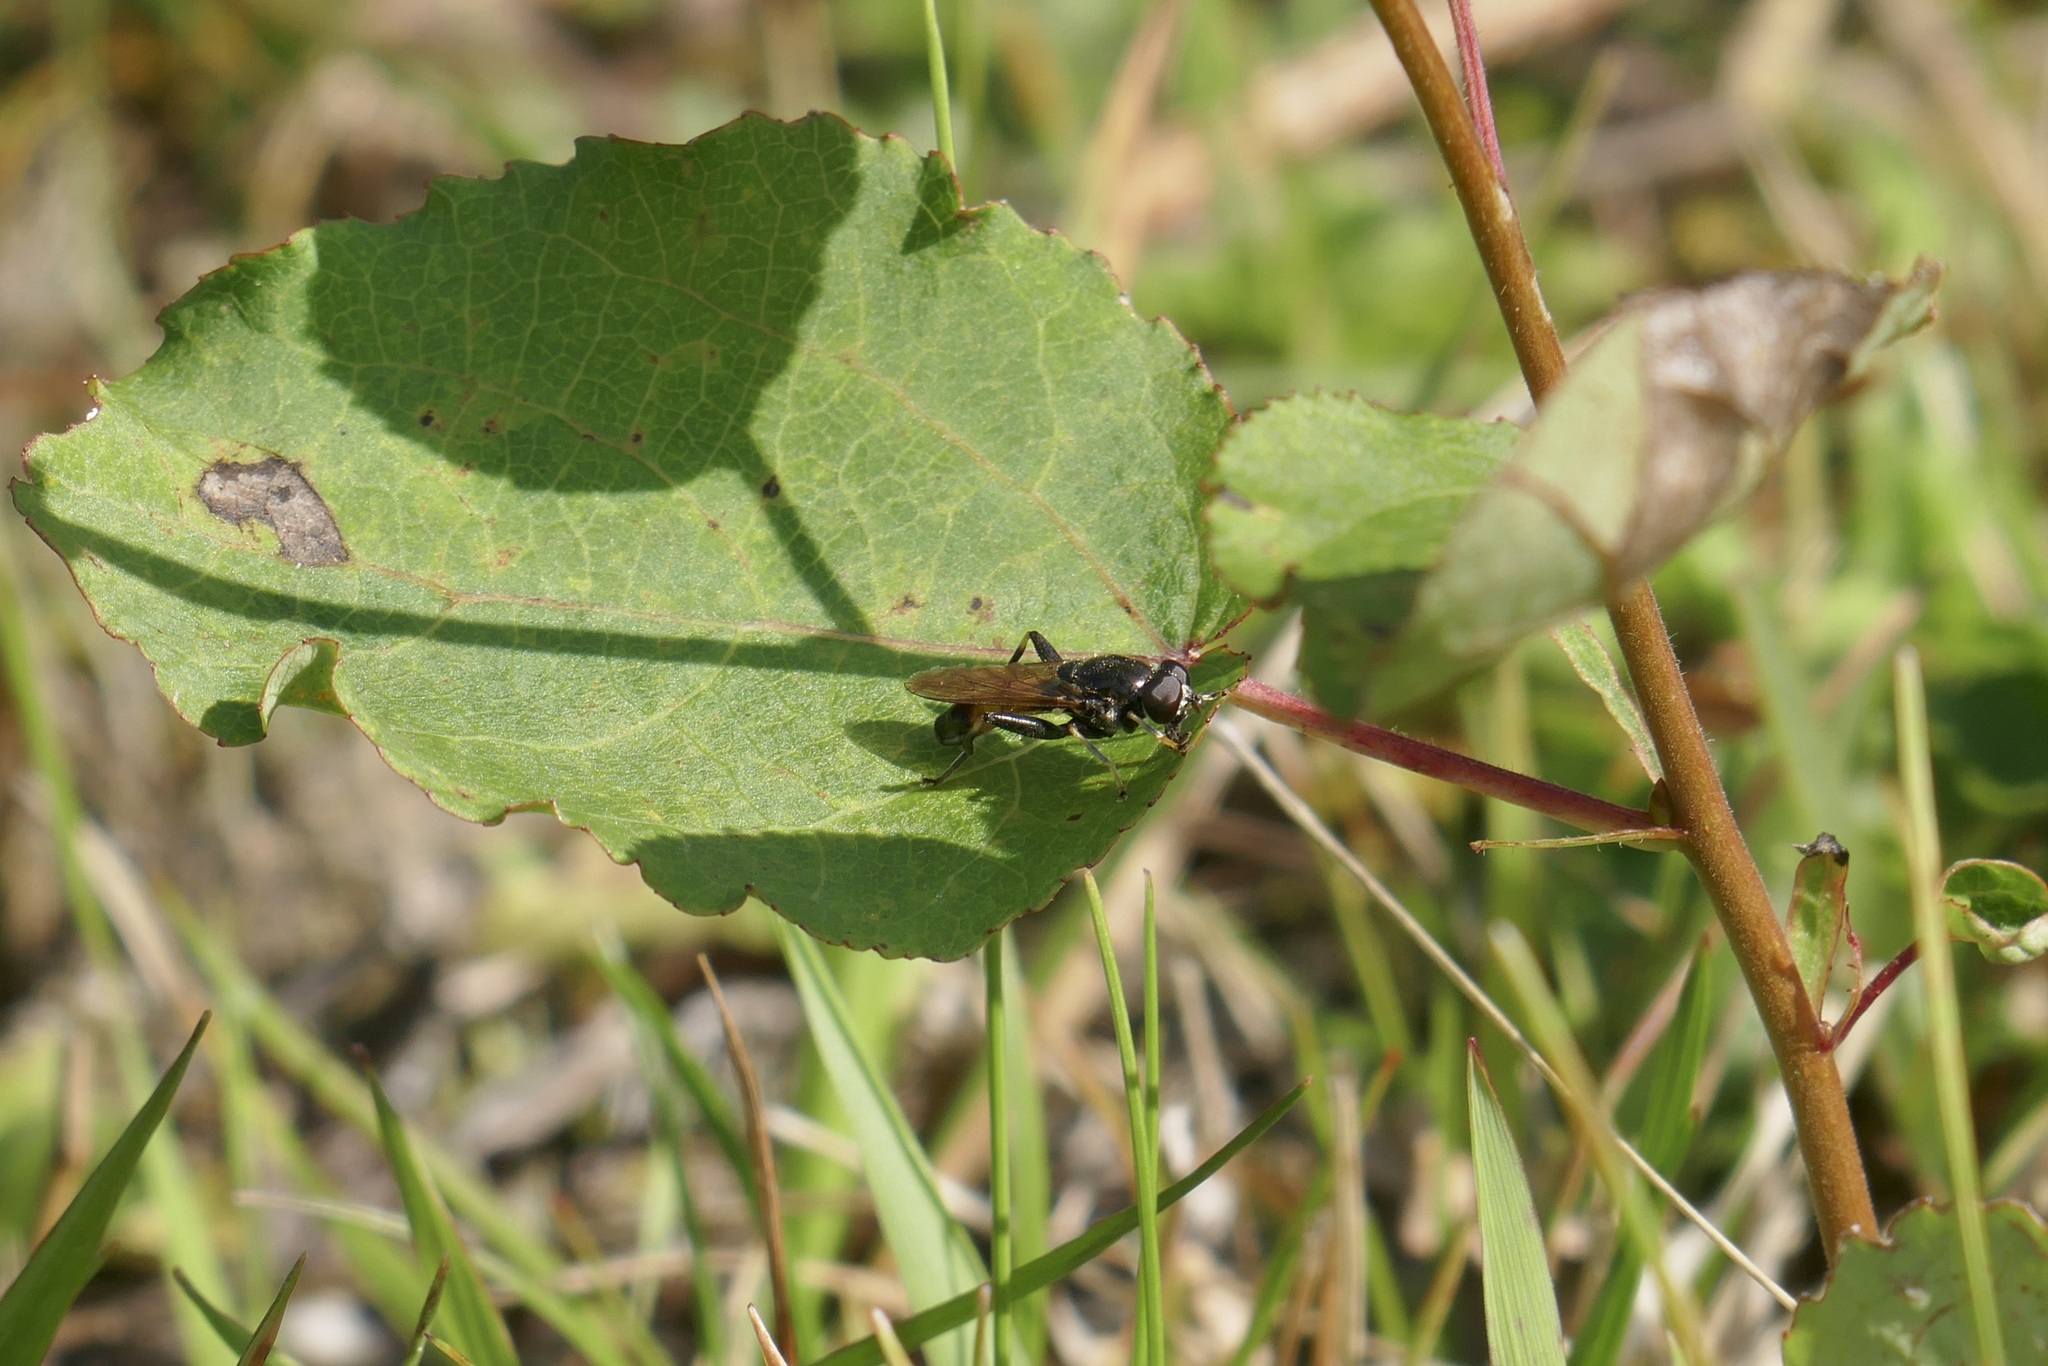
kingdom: Animalia
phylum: Arthropoda
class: Insecta
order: Diptera
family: Syrphidae
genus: Xylota
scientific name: Xylota segnis
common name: Brown-toed forest fly
